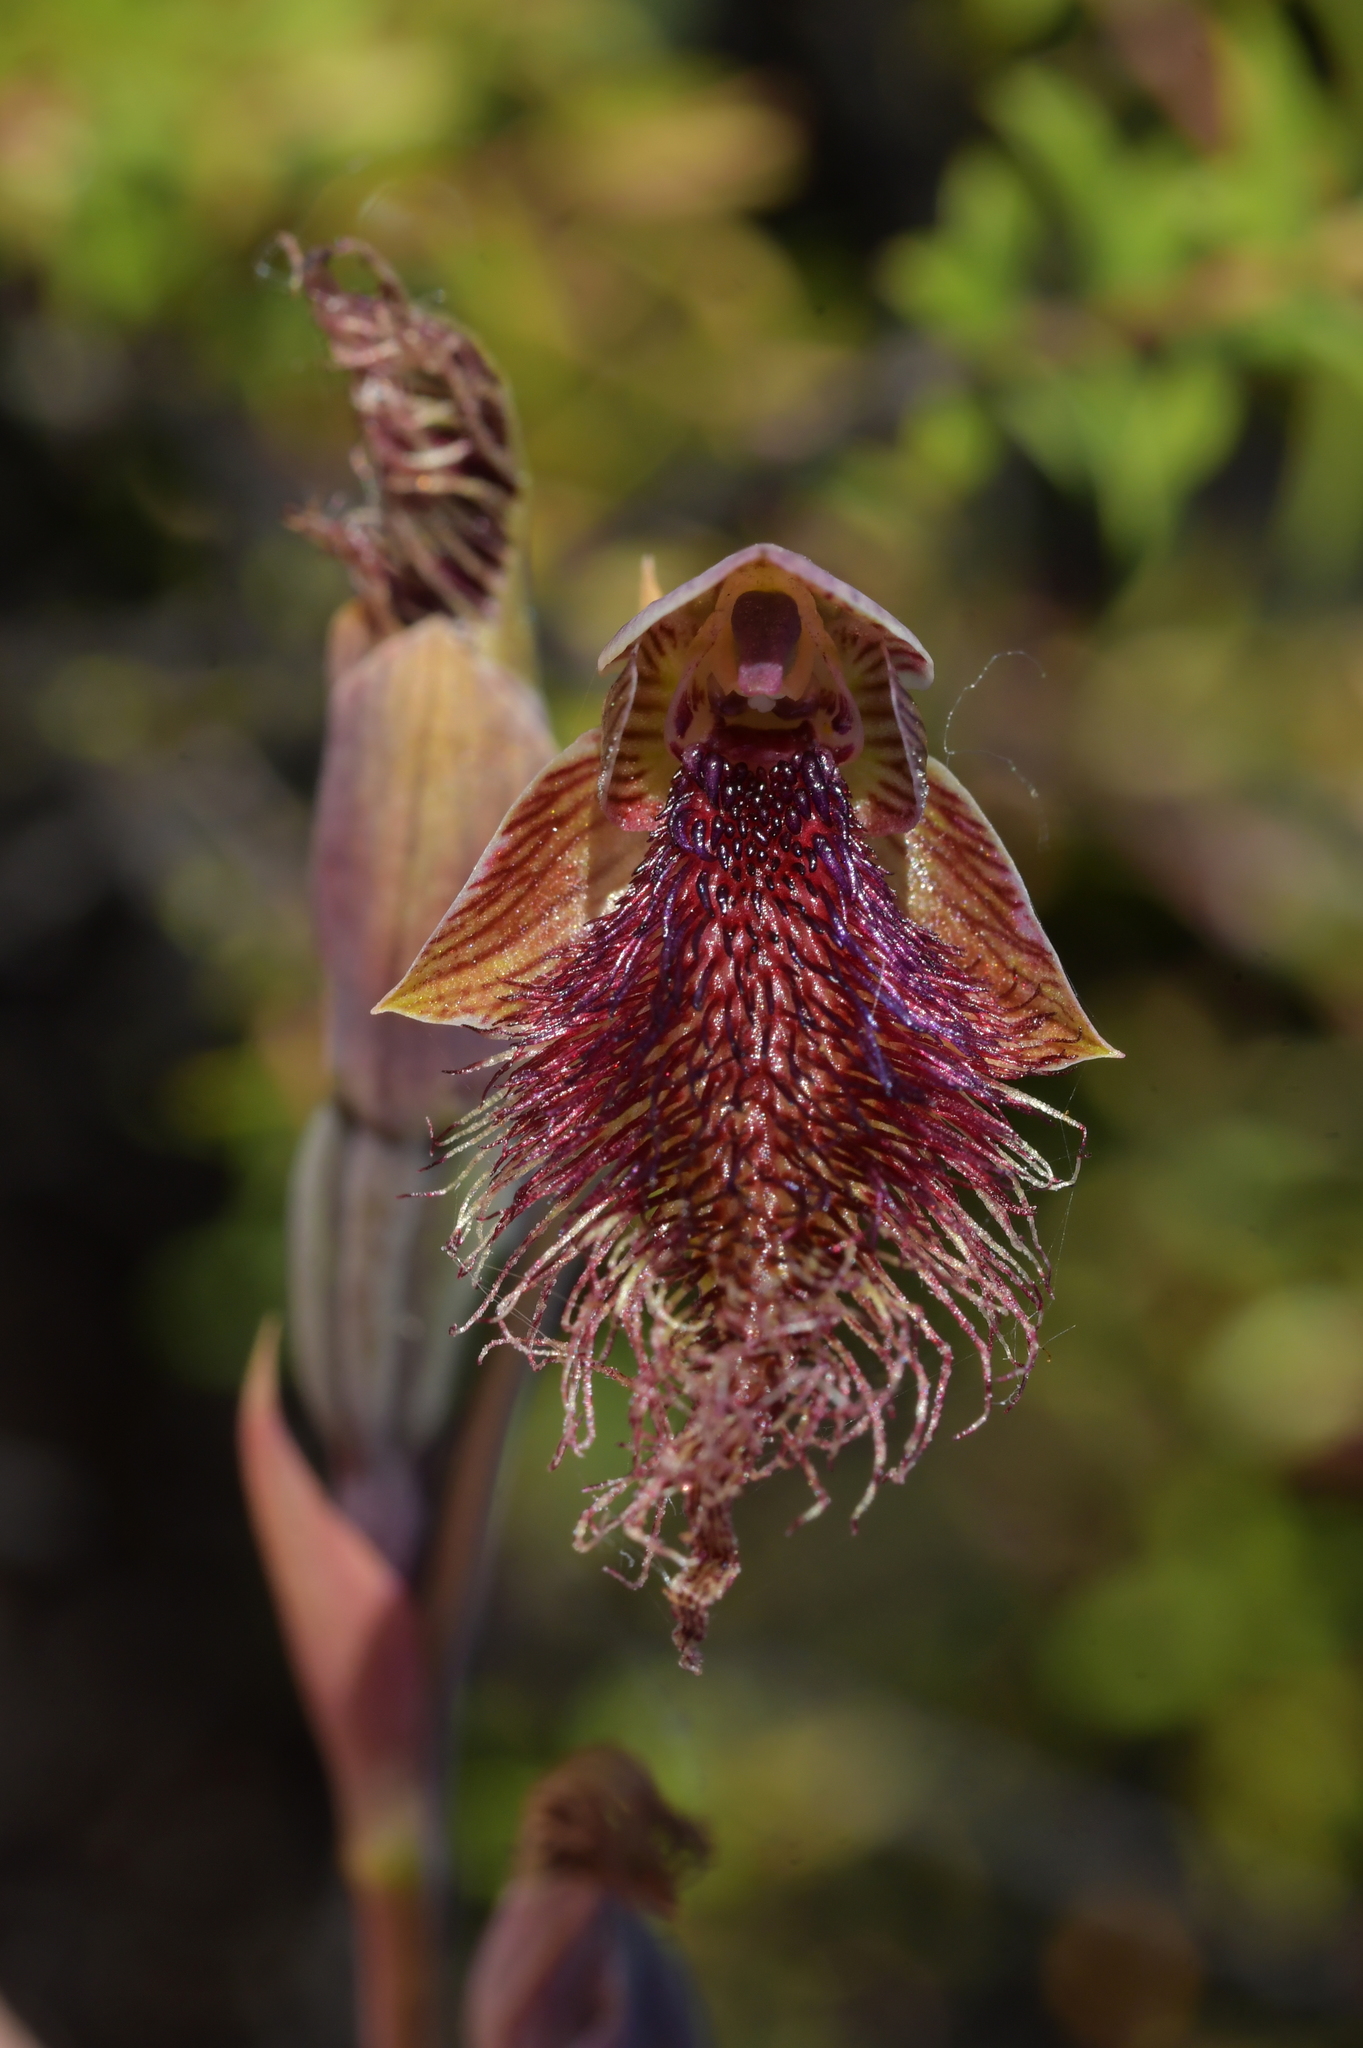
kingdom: Plantae
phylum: Tracheophyta
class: Liliopsida
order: Asparagales
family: Orchidaceae
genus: Calochilus
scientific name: Calochilus robertsonii
